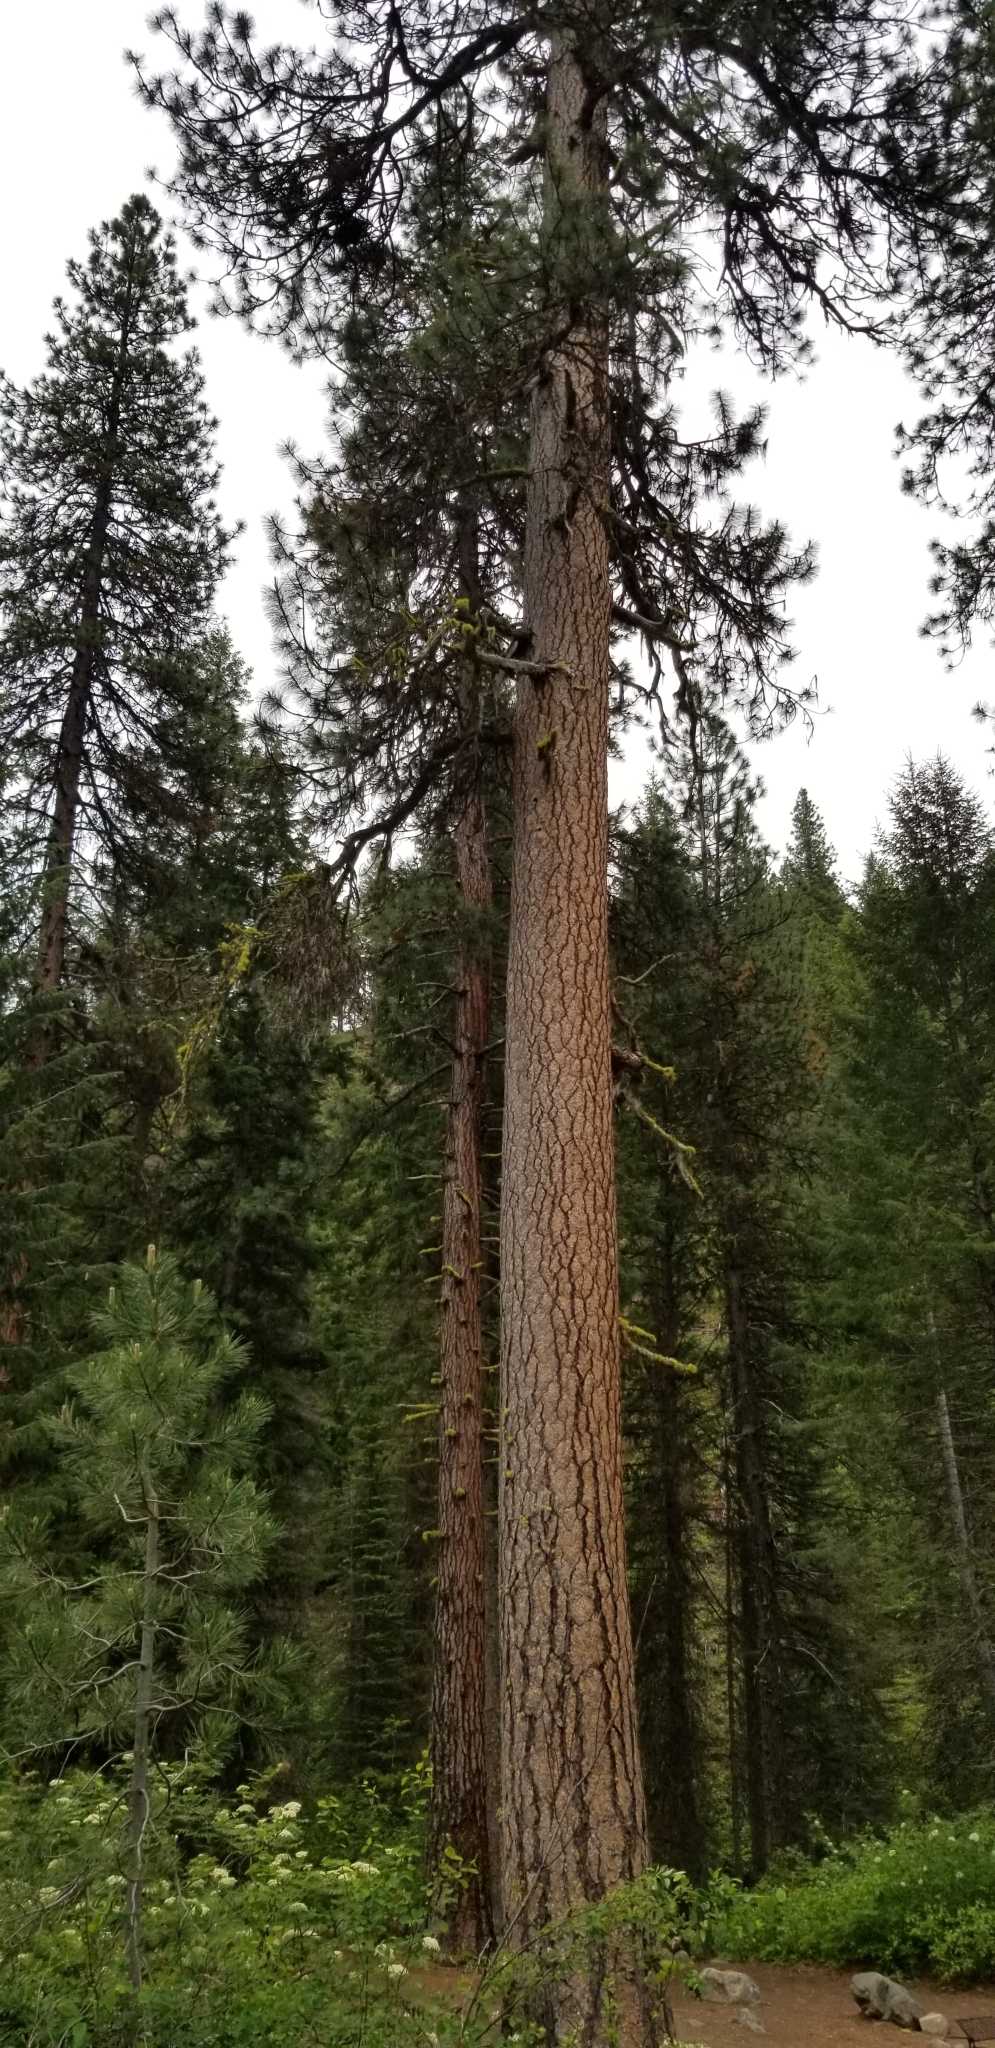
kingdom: Plantae
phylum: Tracheophyta
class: Pinopsida
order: Pinales
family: Pinaceae
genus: Pinus
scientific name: Pinus ponderosa
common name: Western yellow-pine
